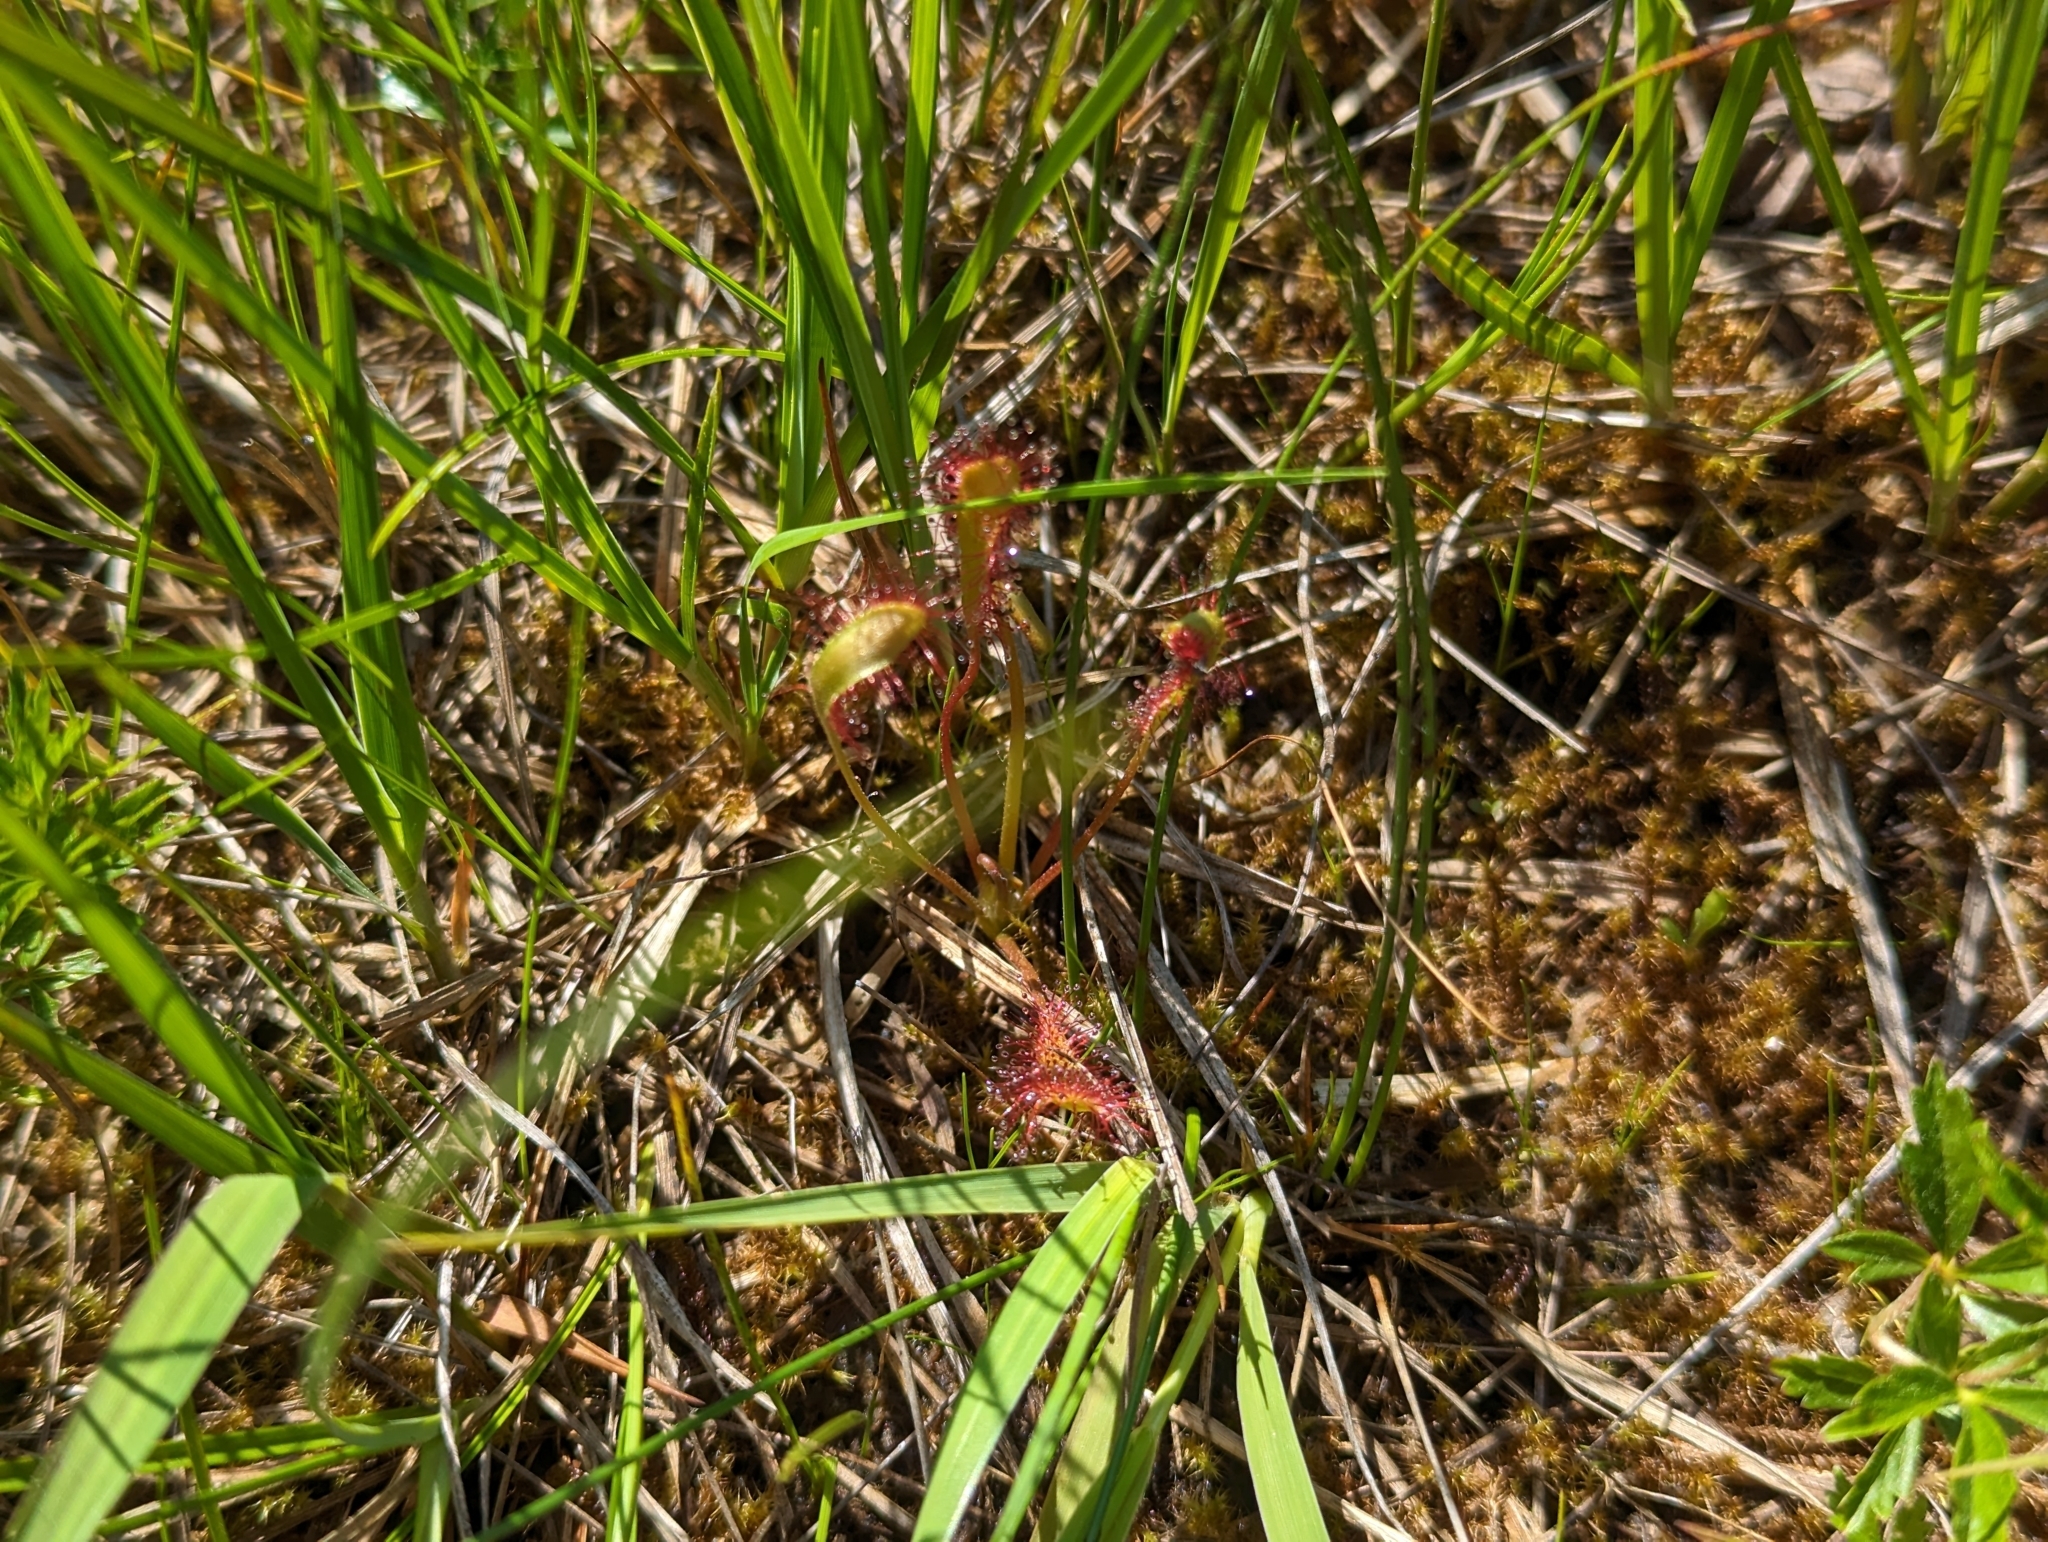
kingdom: Plantae
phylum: Tracheophyta
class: Magnoliopsida
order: Caryophyllales
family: Droseraceae
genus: Drosera
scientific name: Drosera anglica
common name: Great sundew
